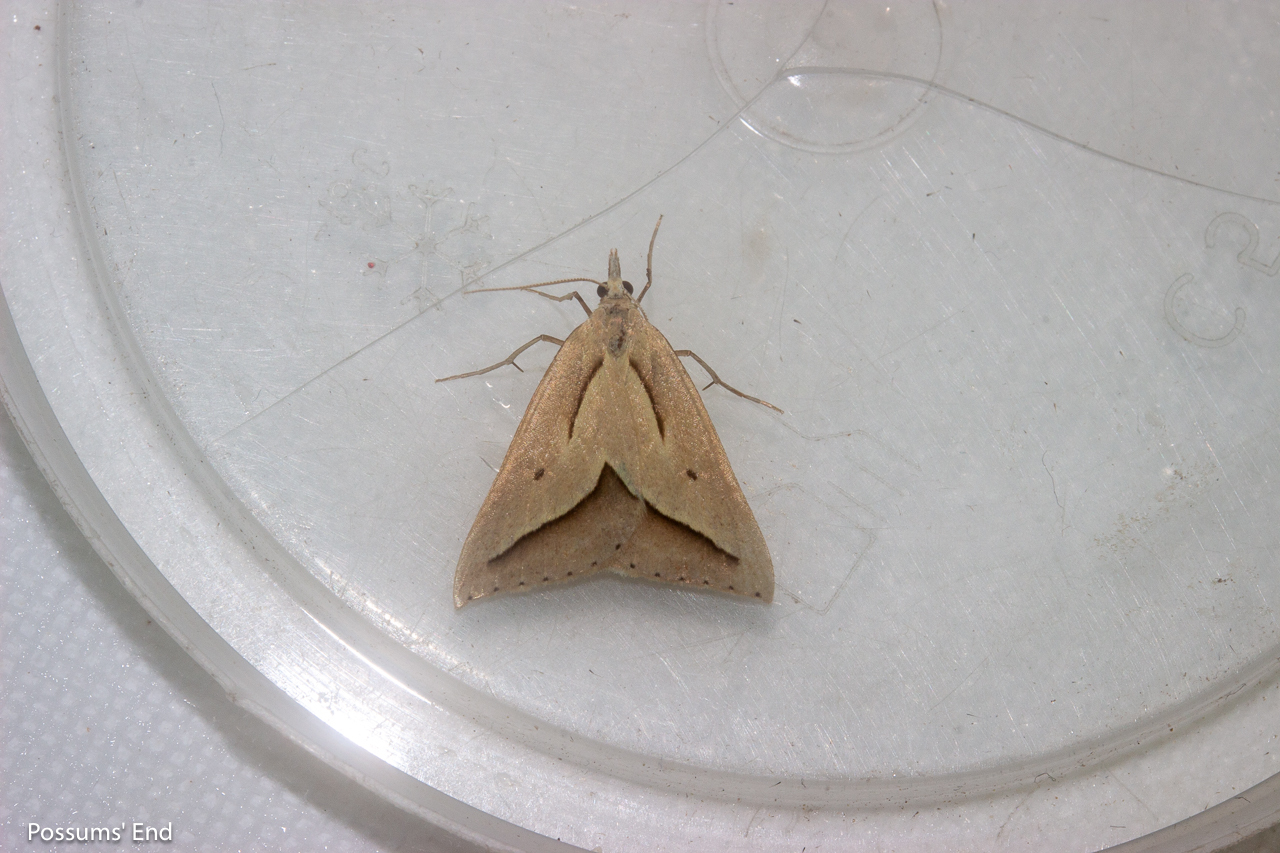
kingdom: Animalia
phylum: Arthropoda
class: Insecta
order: Lepidoptera
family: Geometridae
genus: Samana
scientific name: Samana acutata
